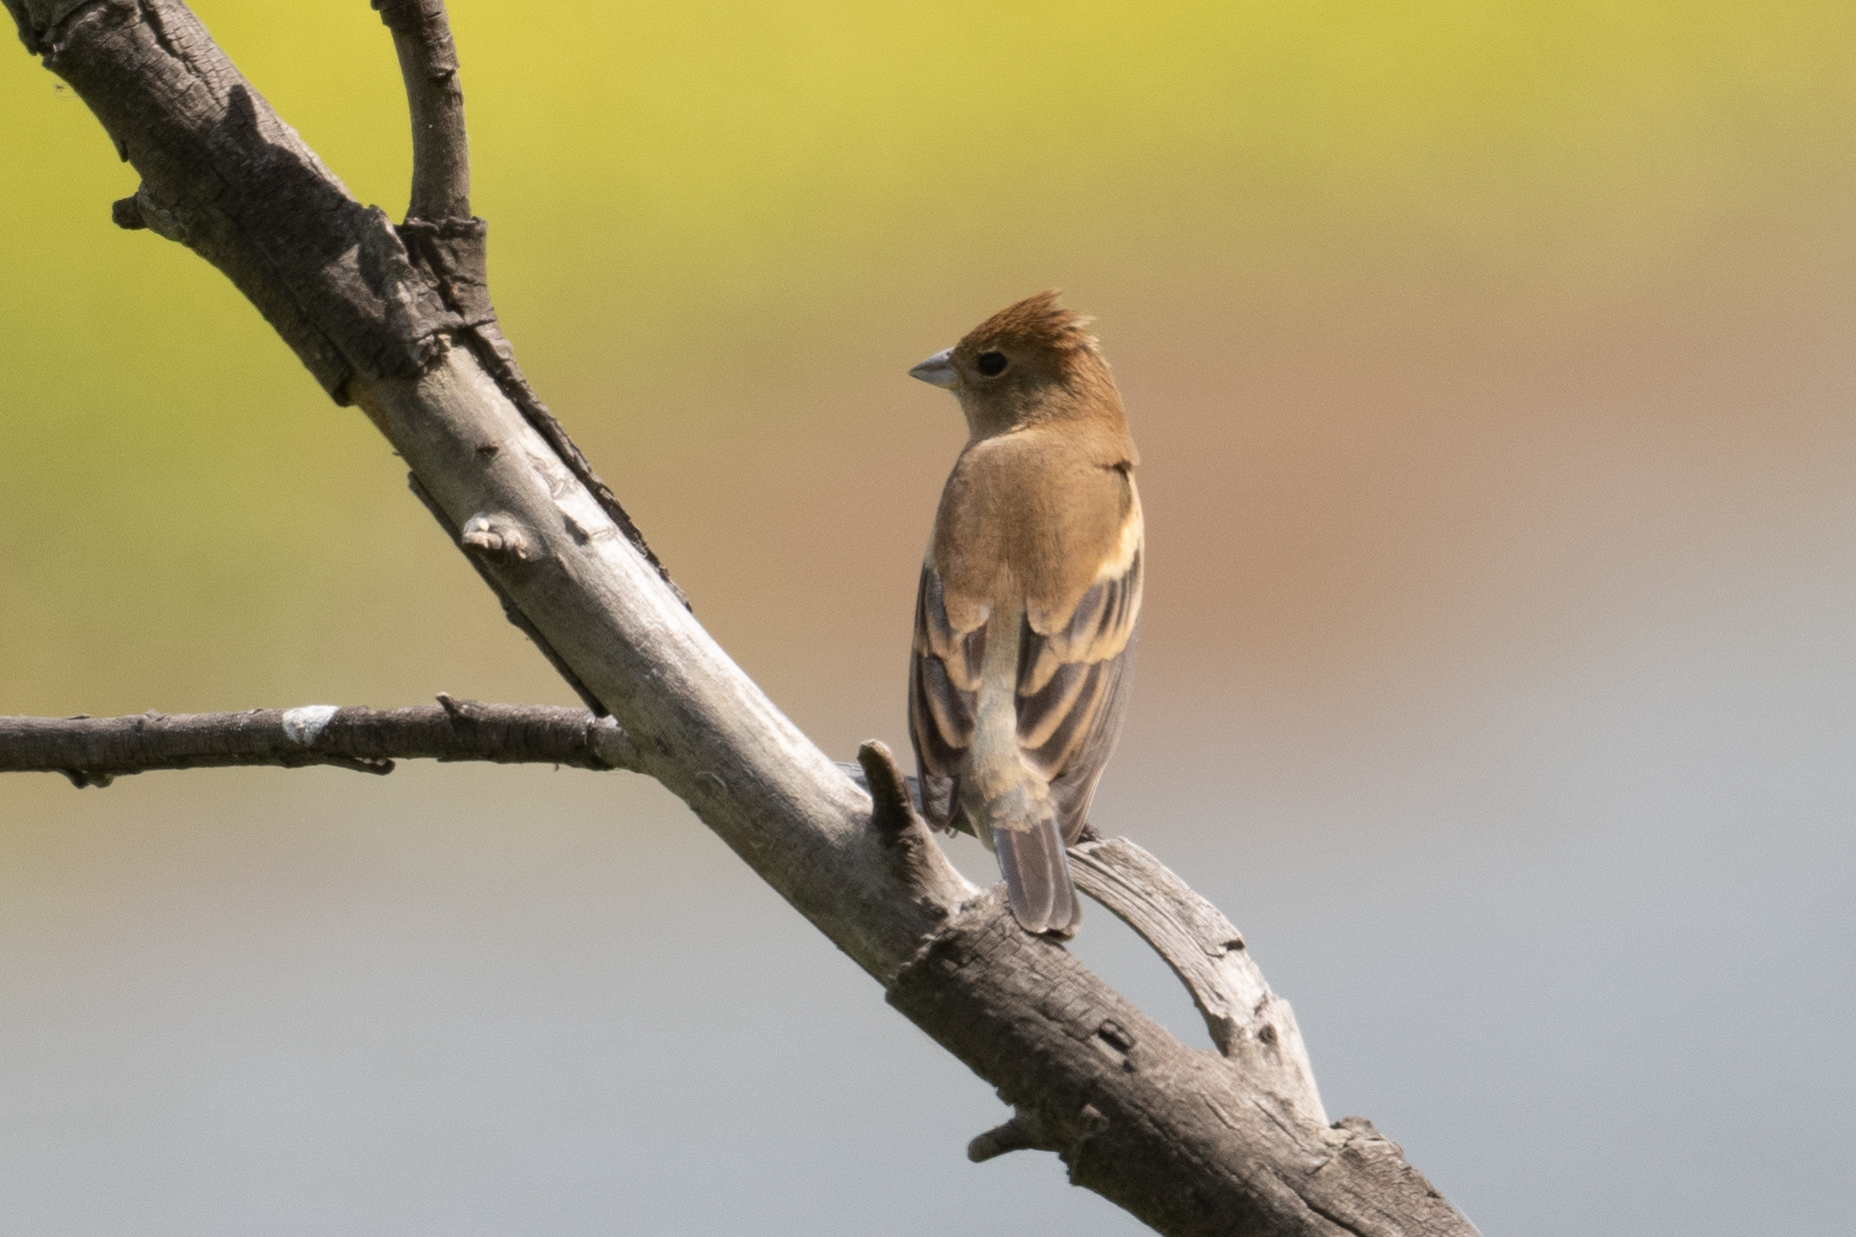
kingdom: Animalia
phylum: Chordata
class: Aves
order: Passeriformes
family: Cardinalidae
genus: Passerina
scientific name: Passerina amoena
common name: Lazuli bunting
